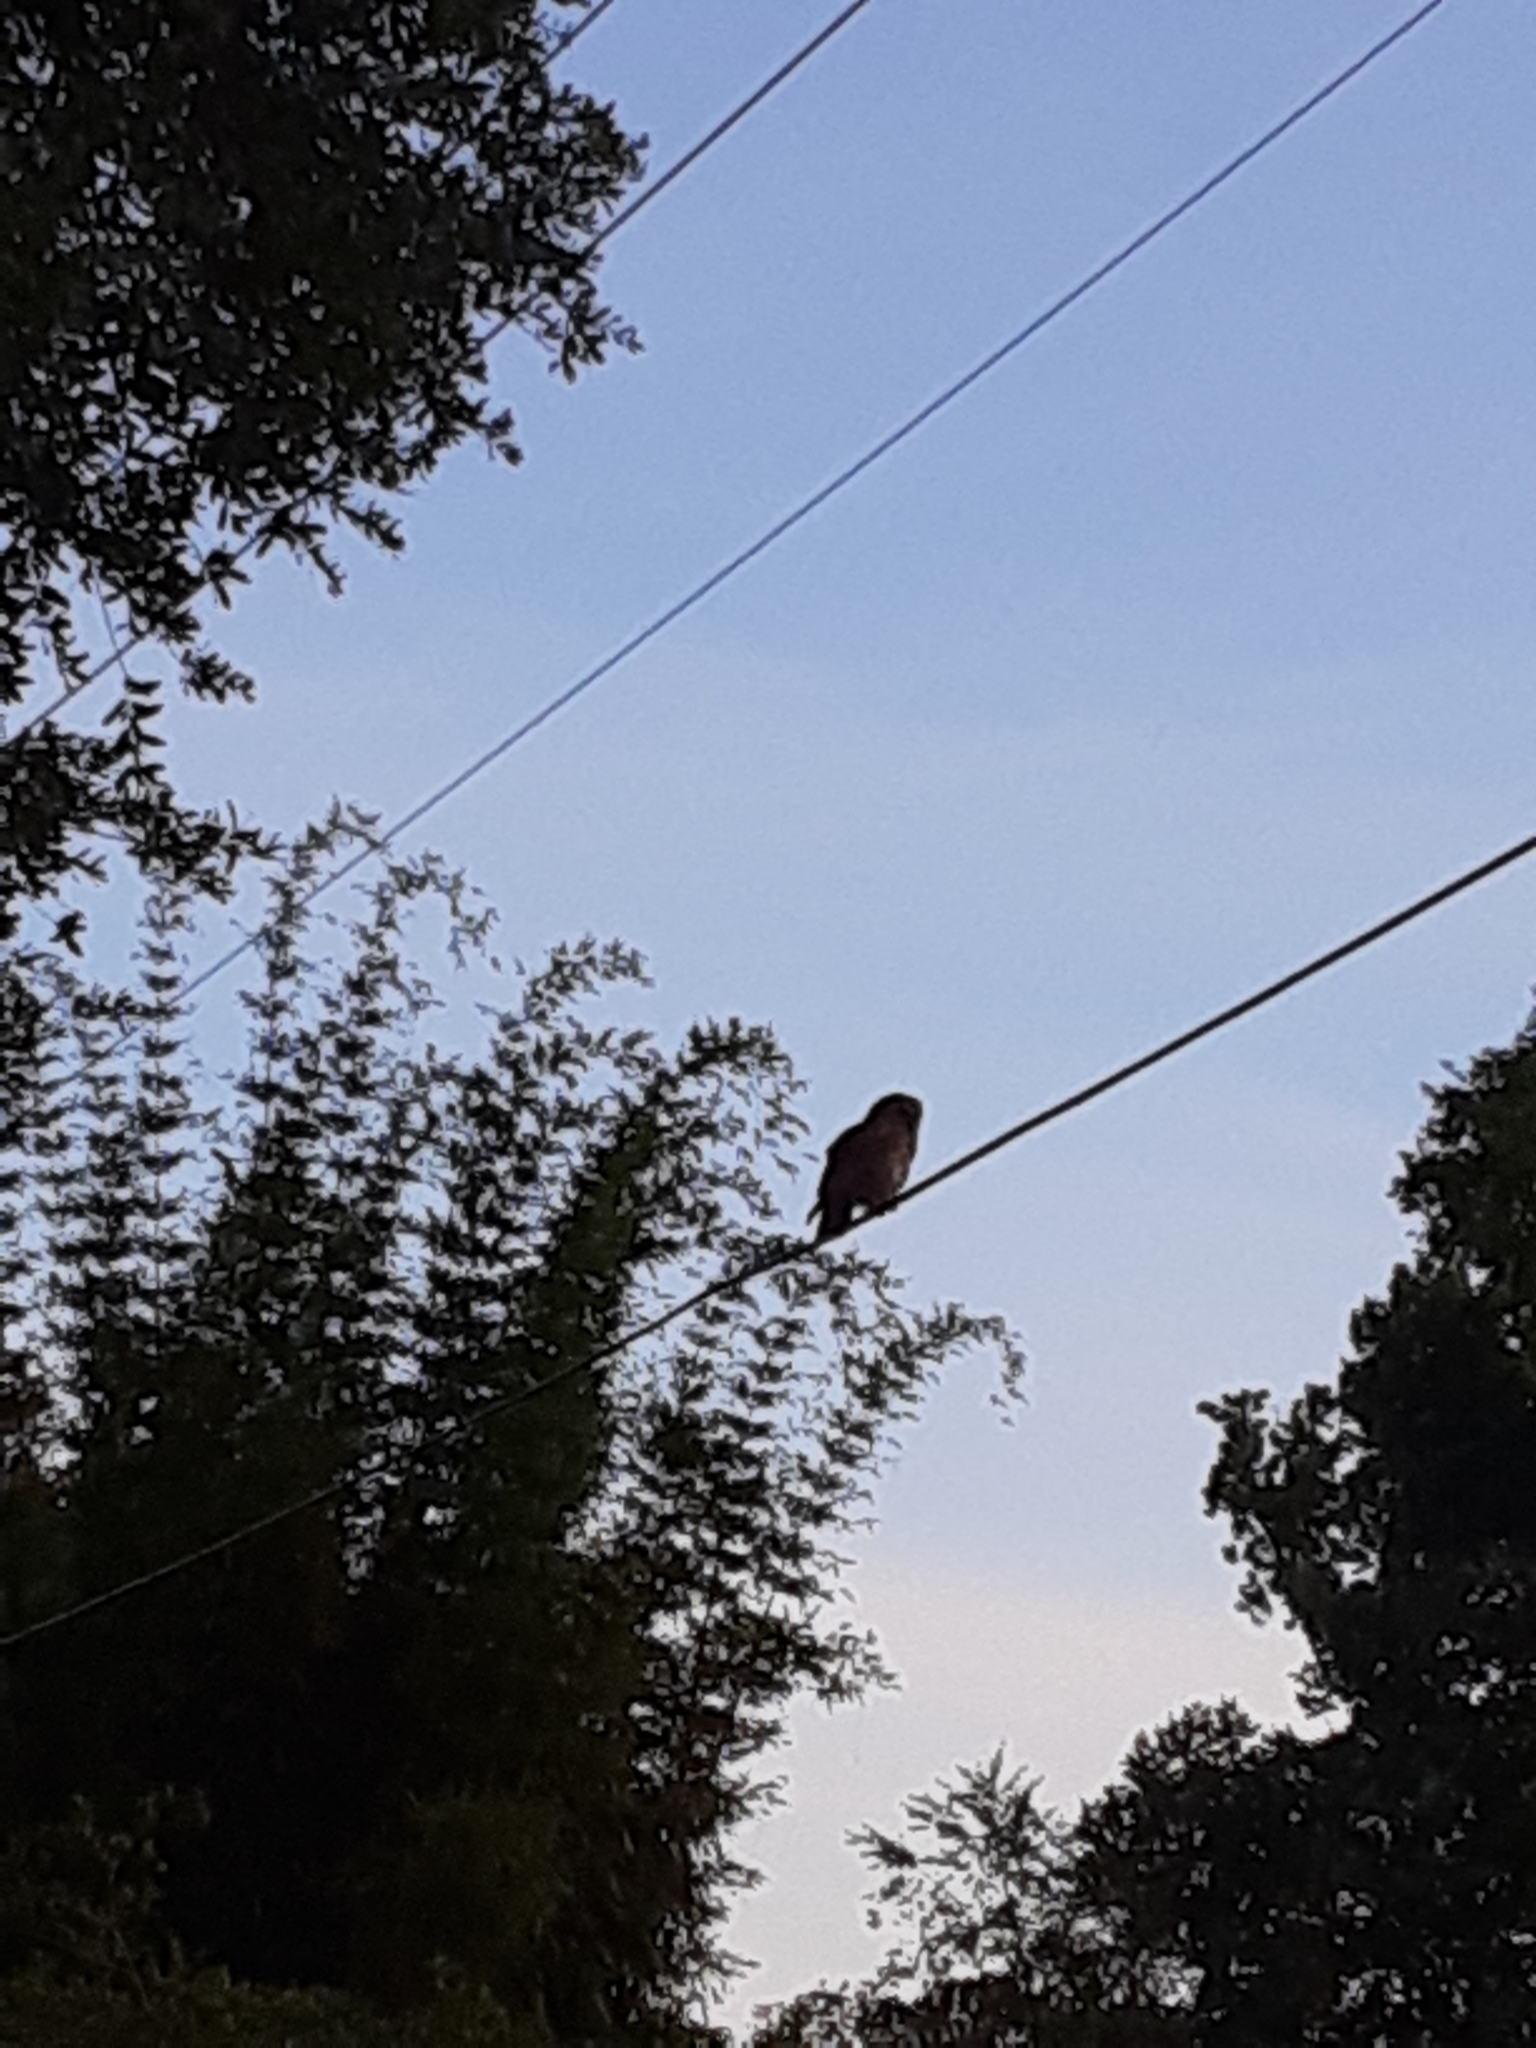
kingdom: Animalia
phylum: Chordata
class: Aves
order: Strigiformes
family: Strigidae
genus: Strix
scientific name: Strix varia
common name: Barred owl
